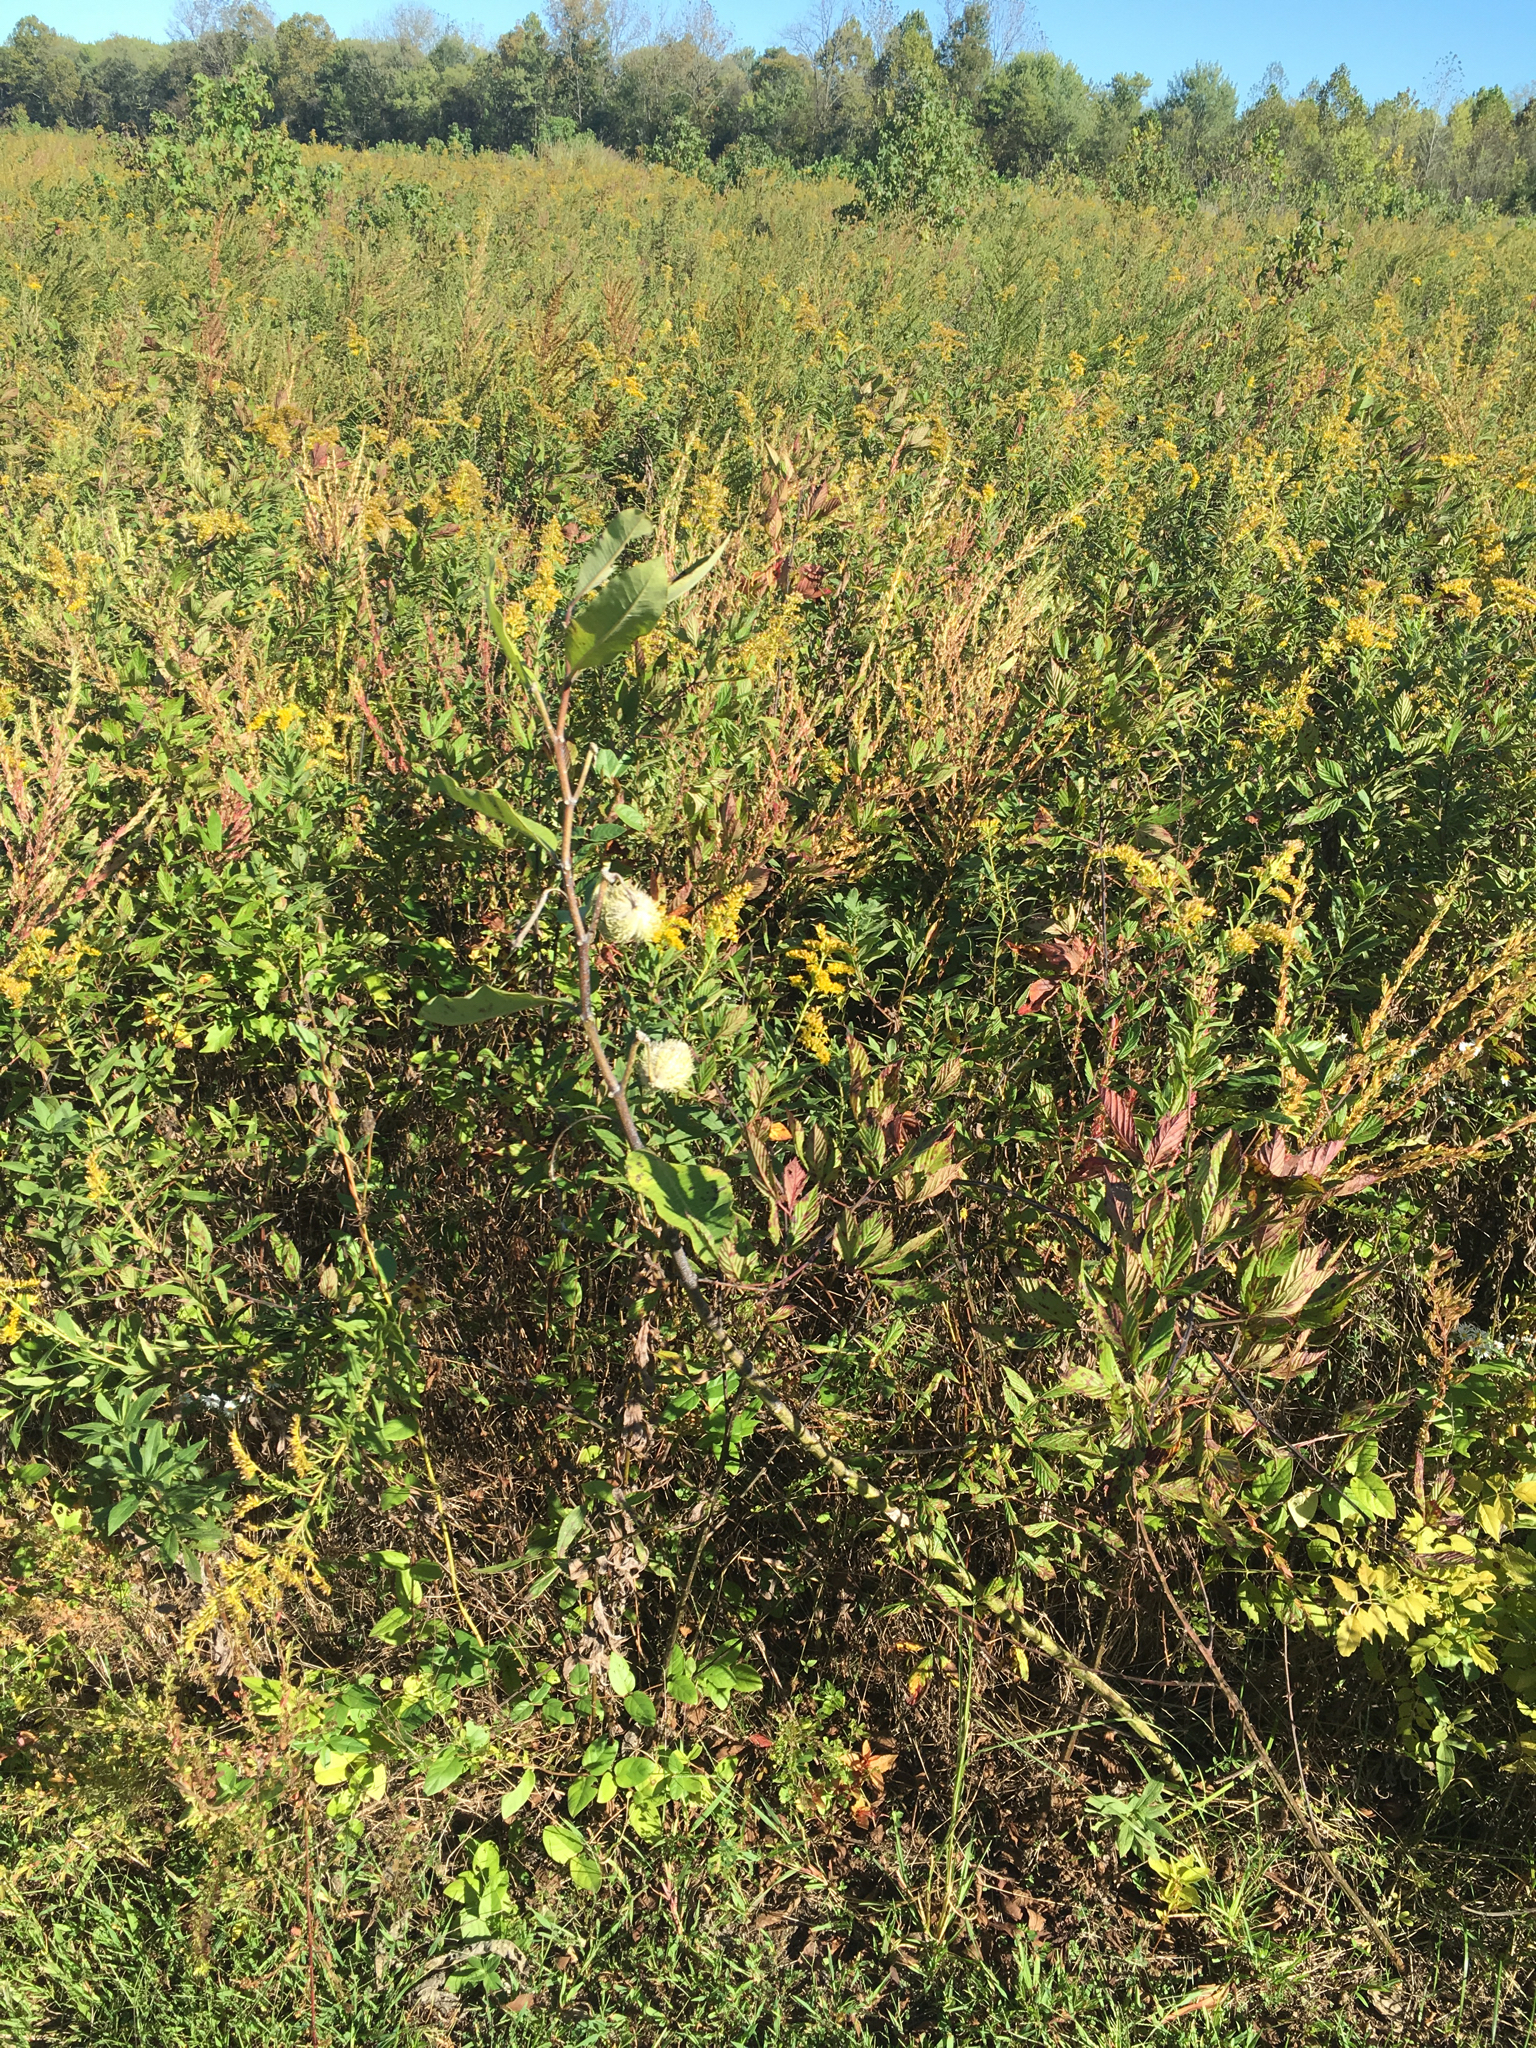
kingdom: Plantae
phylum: Tracheophyta
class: Magnoliopsida
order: Gentianales
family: Apocynaceae
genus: Asclepias
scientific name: Asclepias syriaca
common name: Common milkweed
